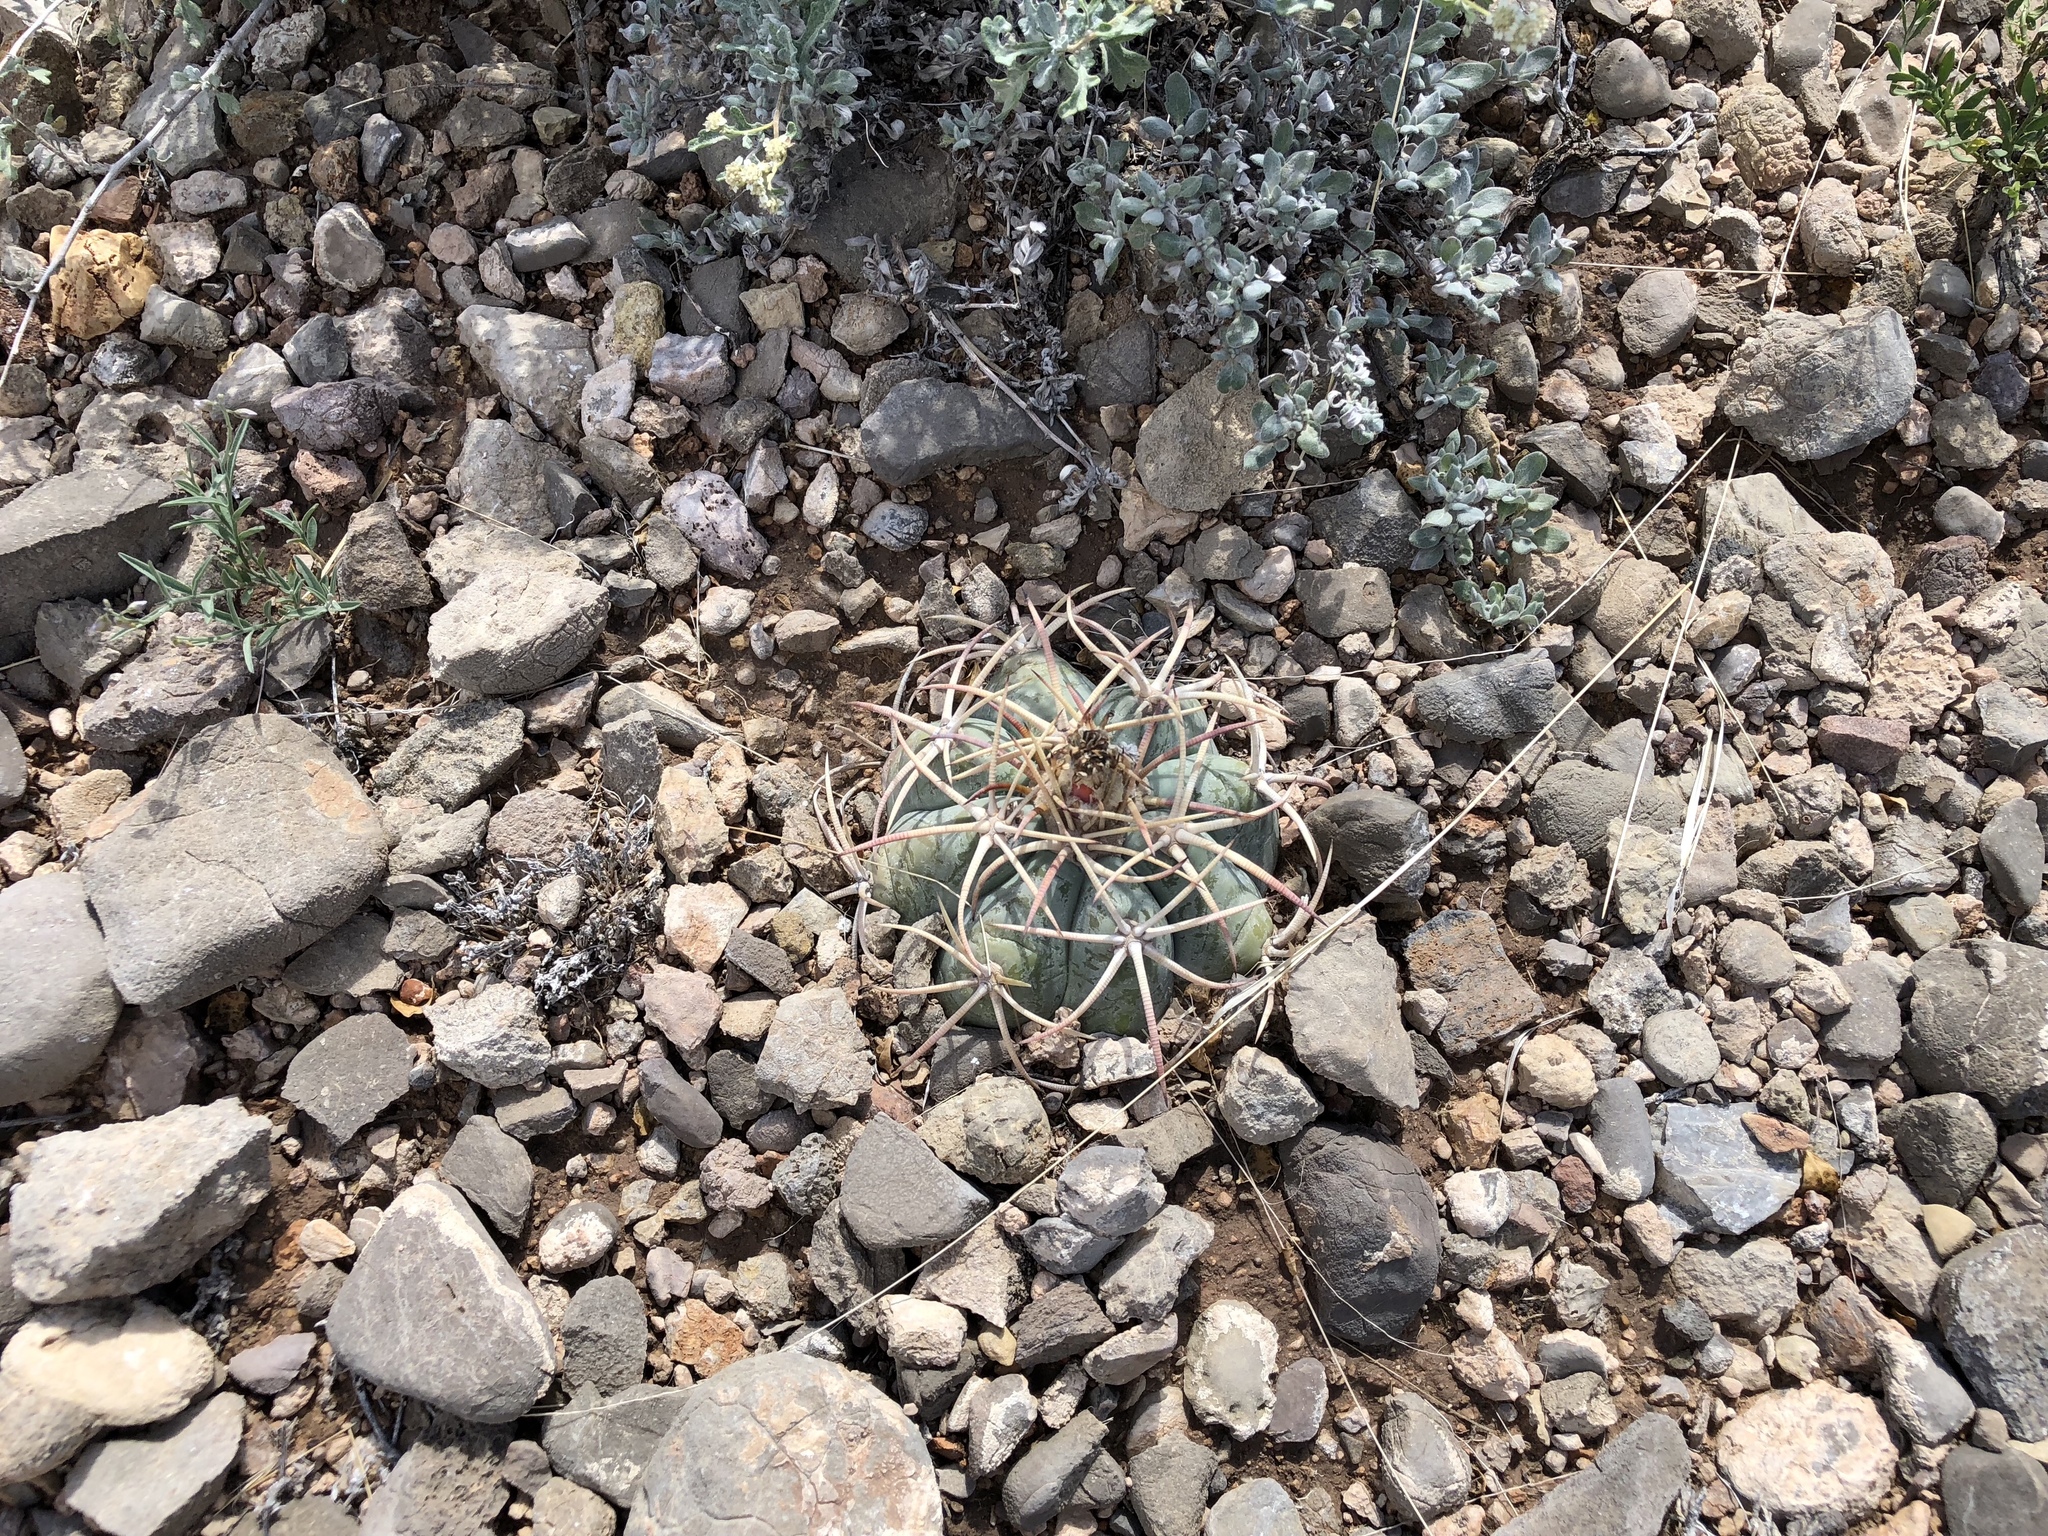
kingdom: Plantae
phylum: Tracheophyta
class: Magnoliopsida
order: Caryophyllales
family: Cactaceae
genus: Echinocactus
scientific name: Echinocactus horizonthalonius
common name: Devilshead
